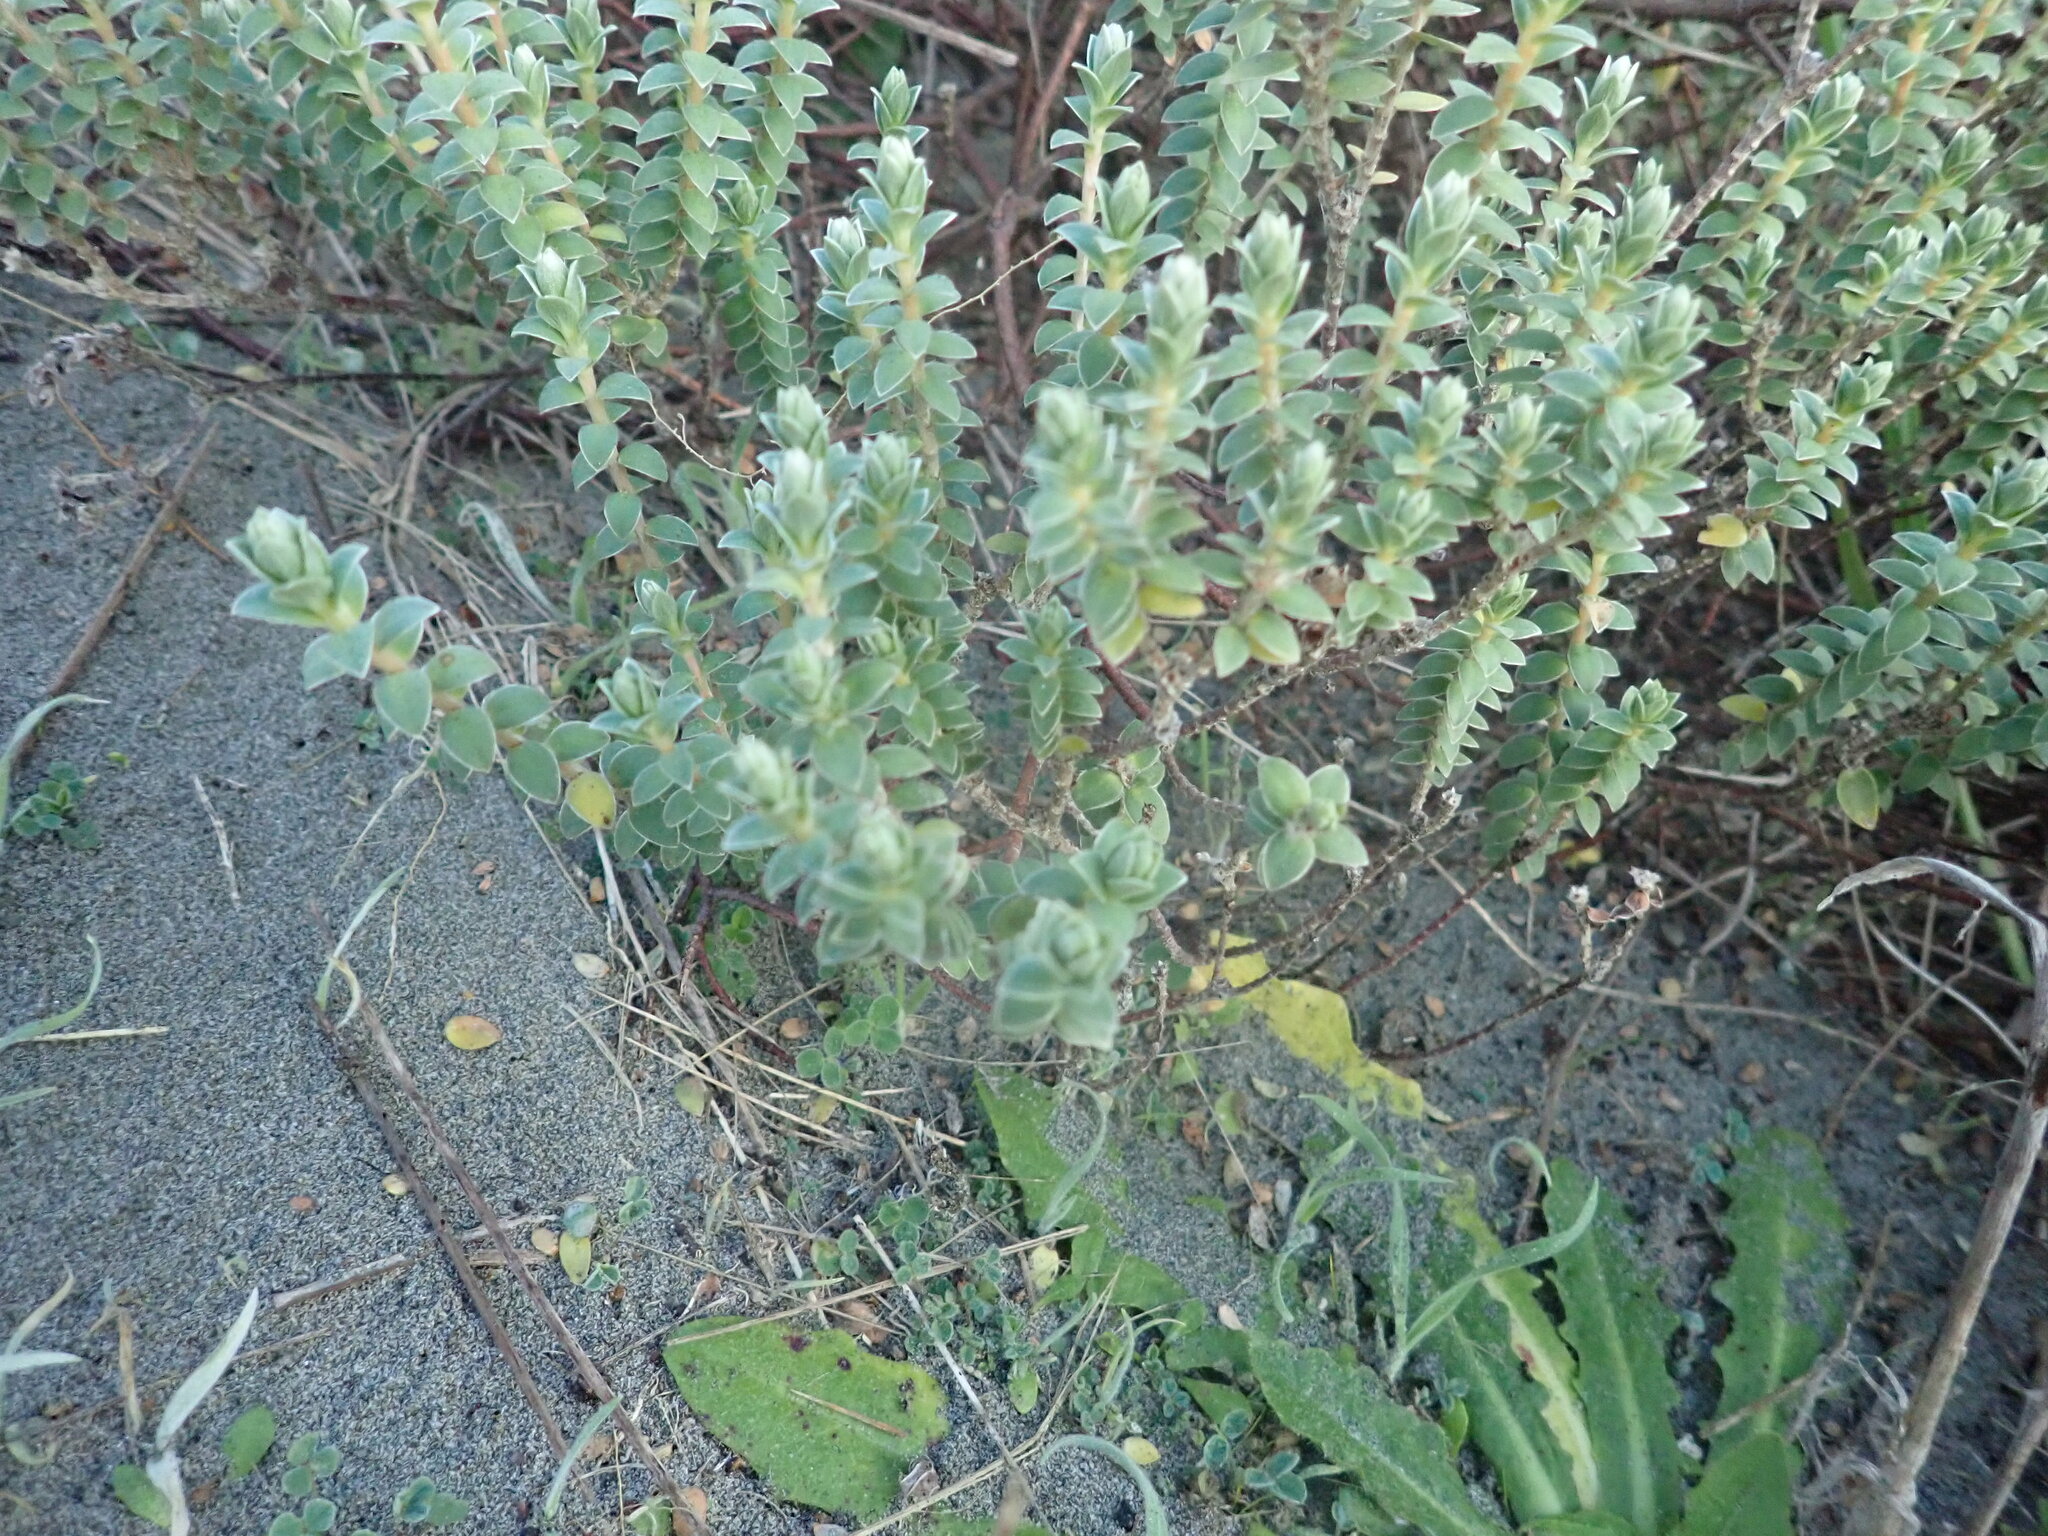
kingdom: Plantae
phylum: Tracheophyta
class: Magnoliopsida
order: Malvales
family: Thymelaeaceae
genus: Pimelea
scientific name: Pimelea villosa
